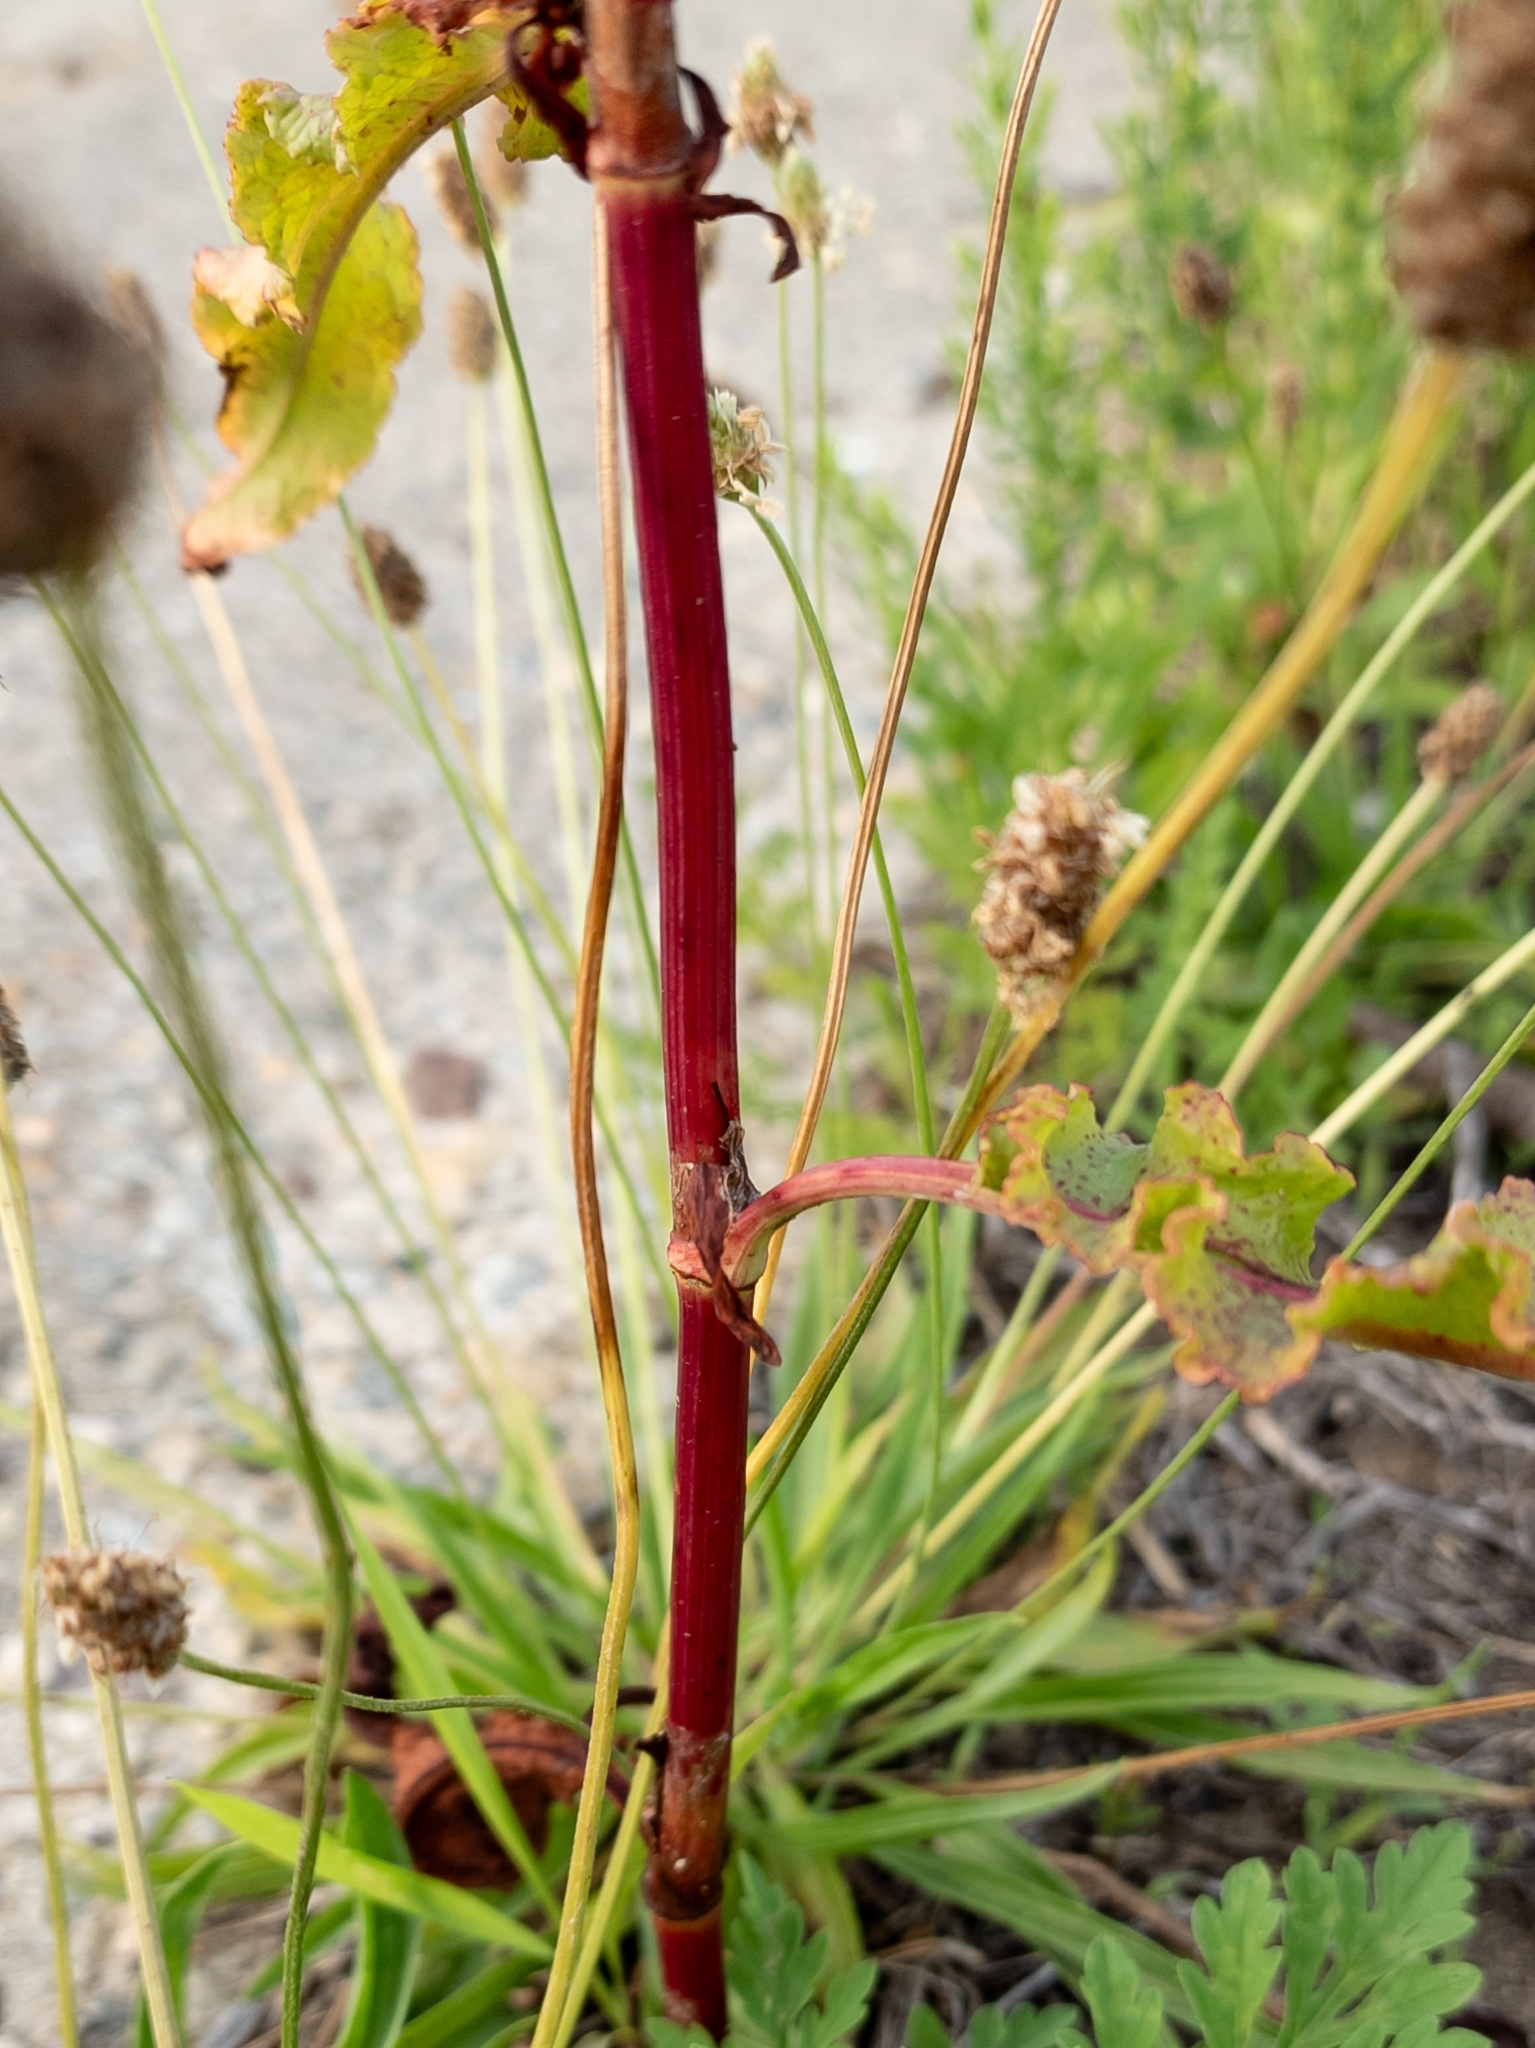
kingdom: Plantae
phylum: Tracheophyta
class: Magnoliopsida
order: Caryophyllales
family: Polygonaceae
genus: Rumex
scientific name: Rumex crispus
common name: Curled dock
